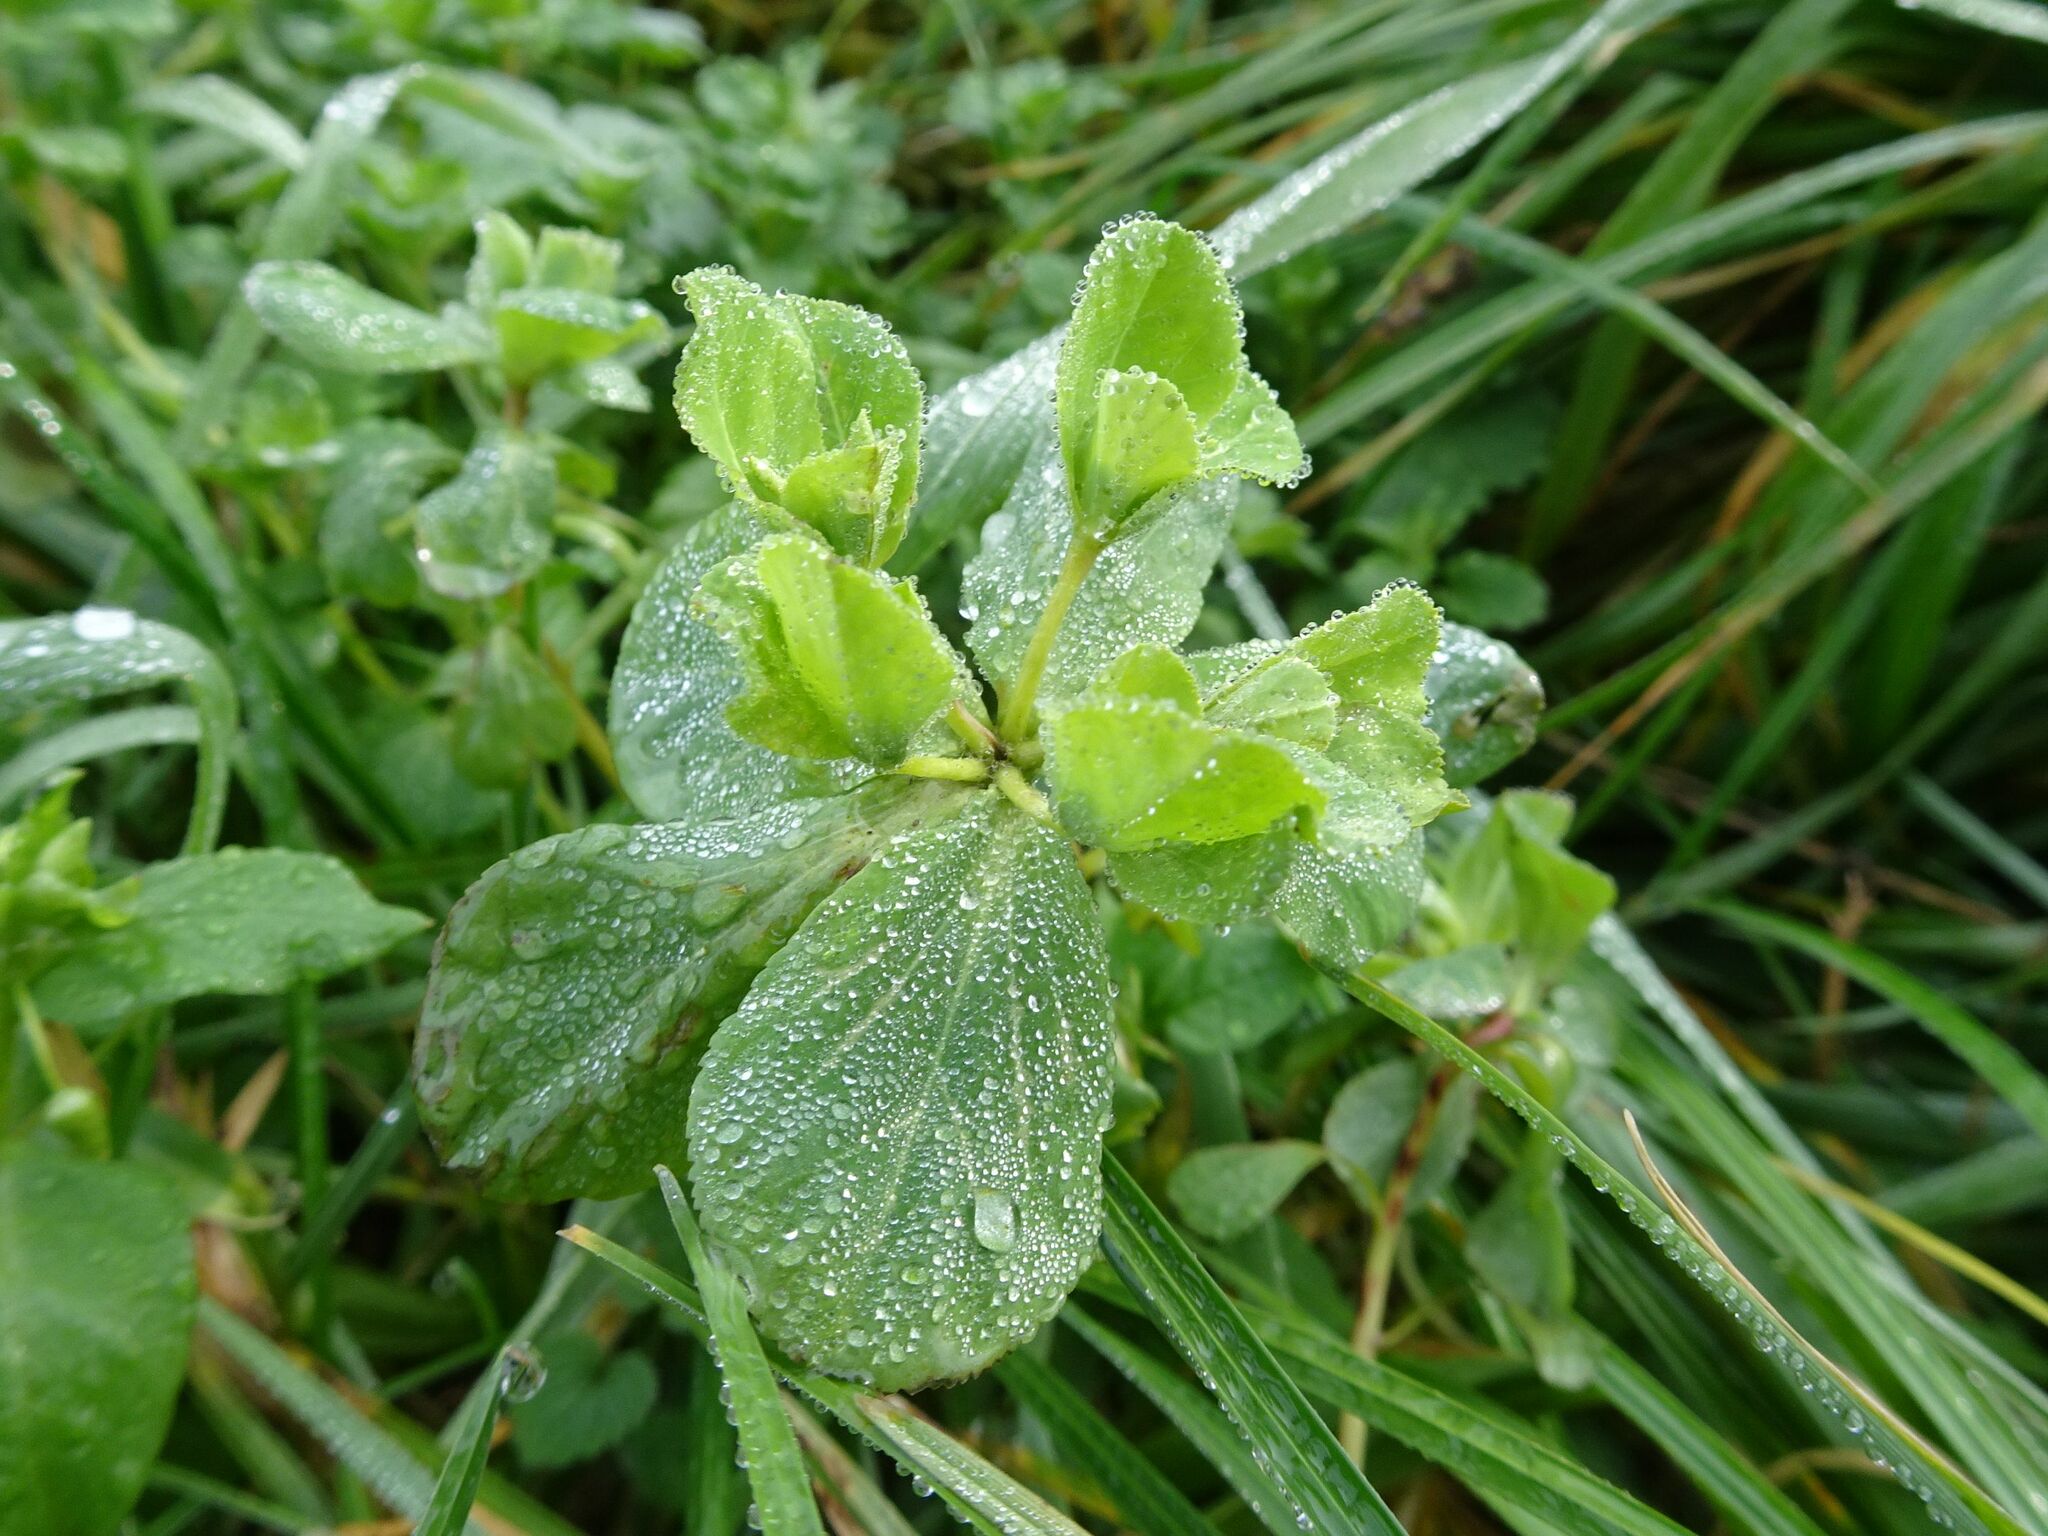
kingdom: Plantae
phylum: Tracheophyta
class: Magnoliopsida
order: Malpighiales
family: Euphorbiaceae
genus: Euphorbia
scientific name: Euphorbia helioscopia
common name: Sun spurge
